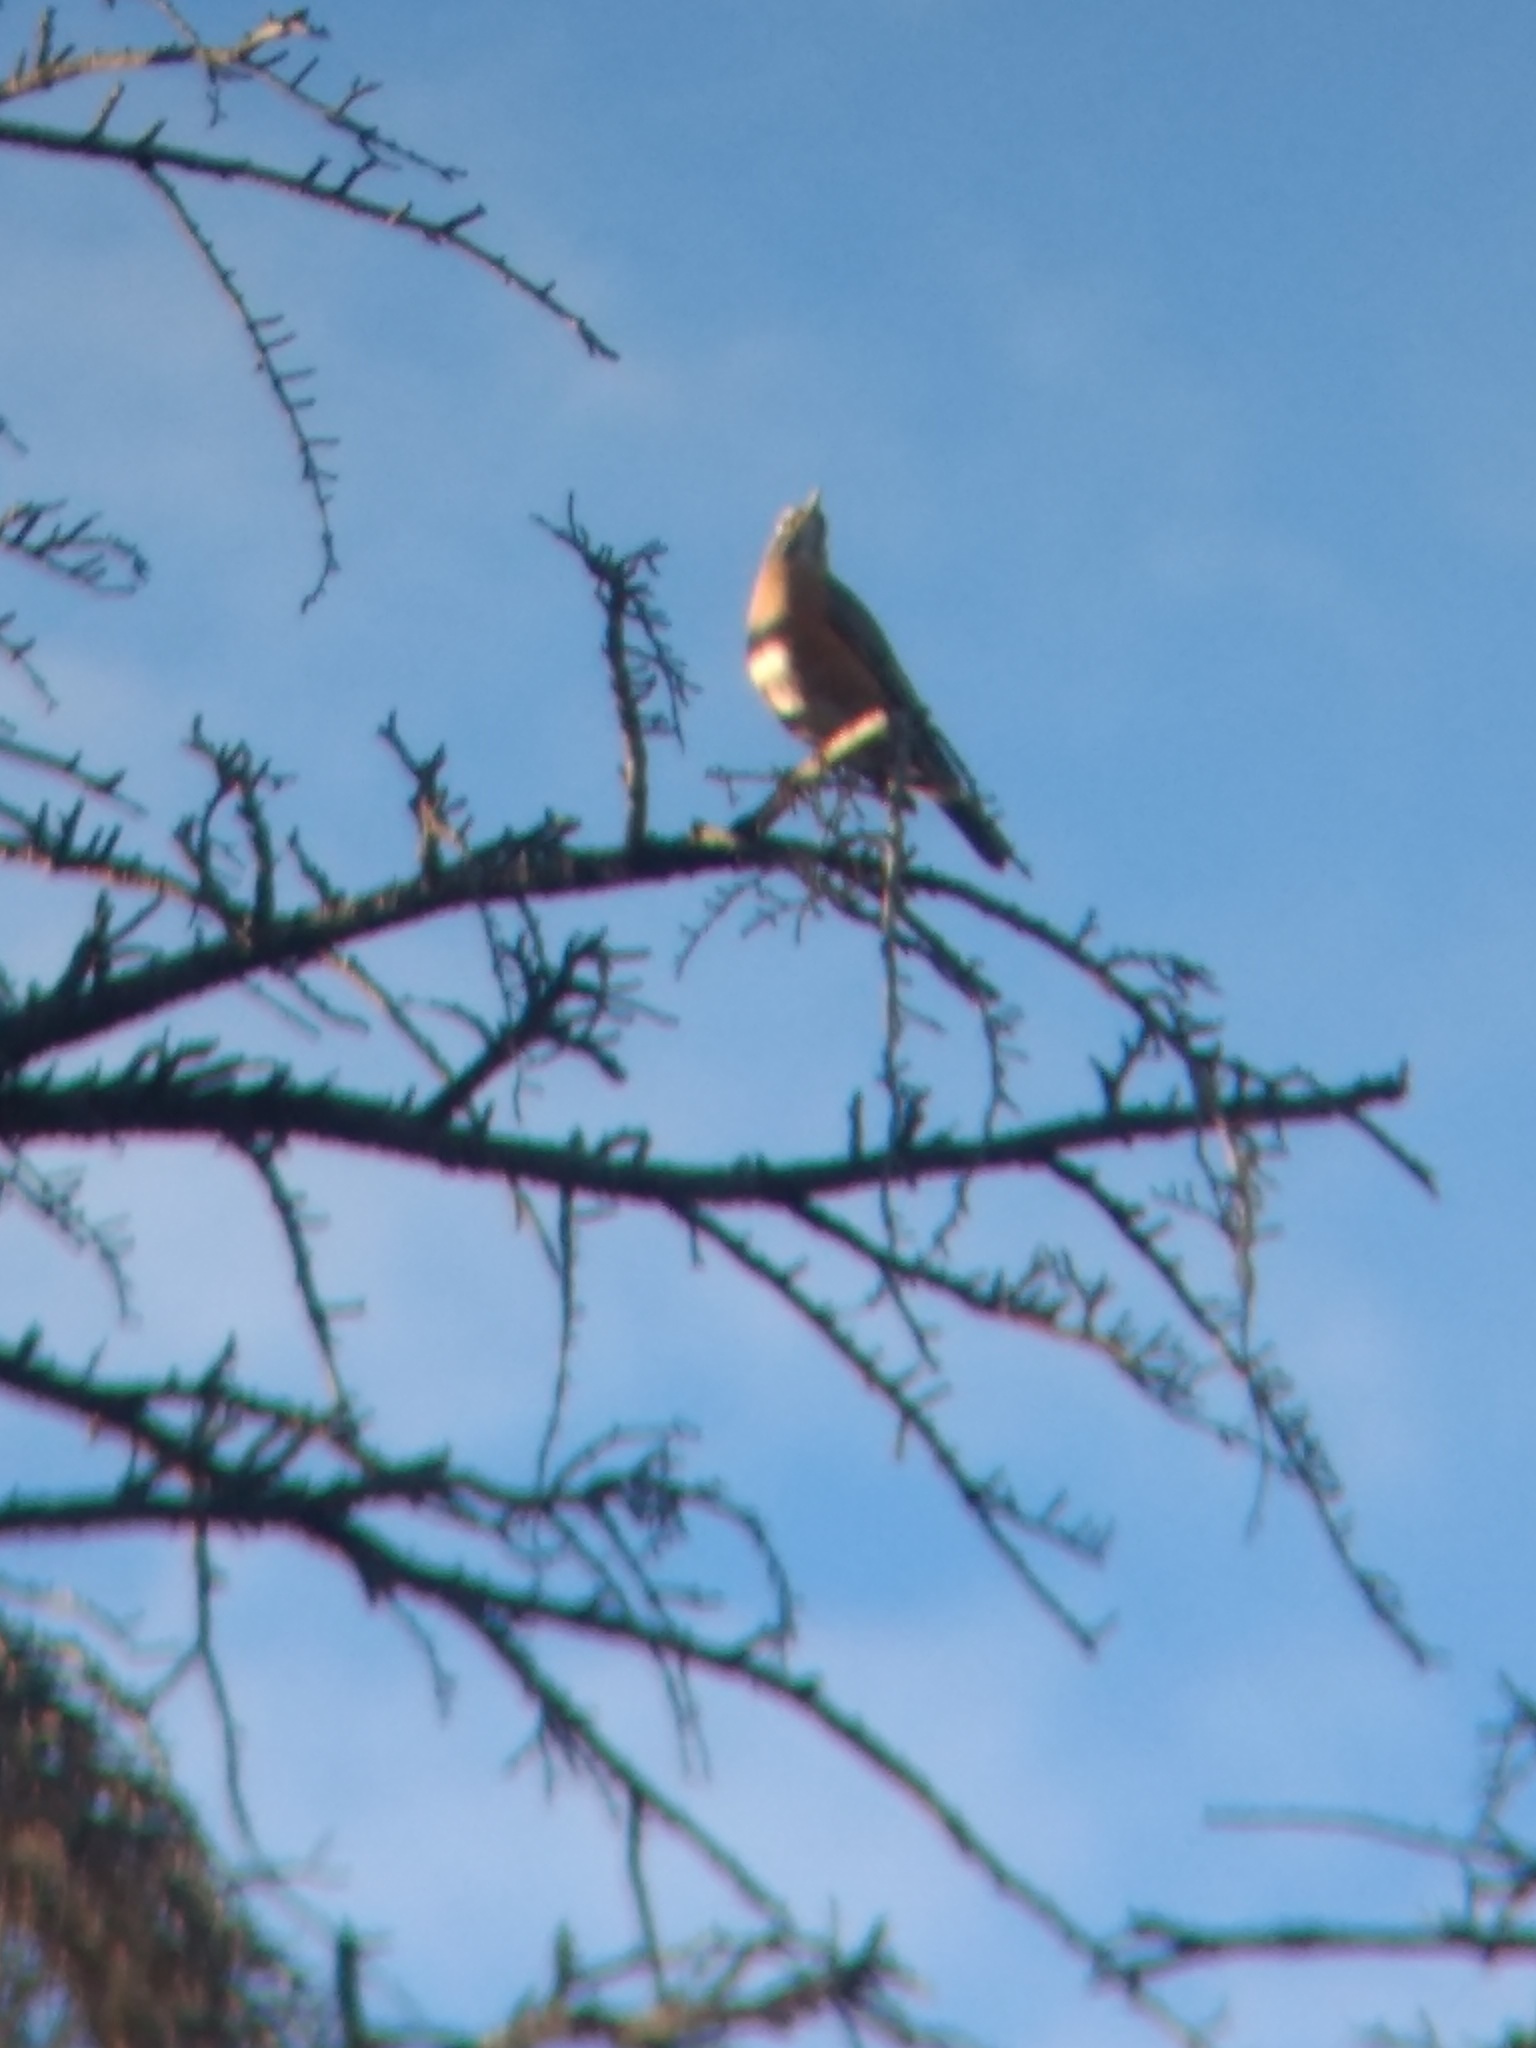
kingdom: Animalia
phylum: Chordata
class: Aves
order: Passeriformes
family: Turdidae
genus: Turdus
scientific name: Turdus migratorius
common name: American robin
